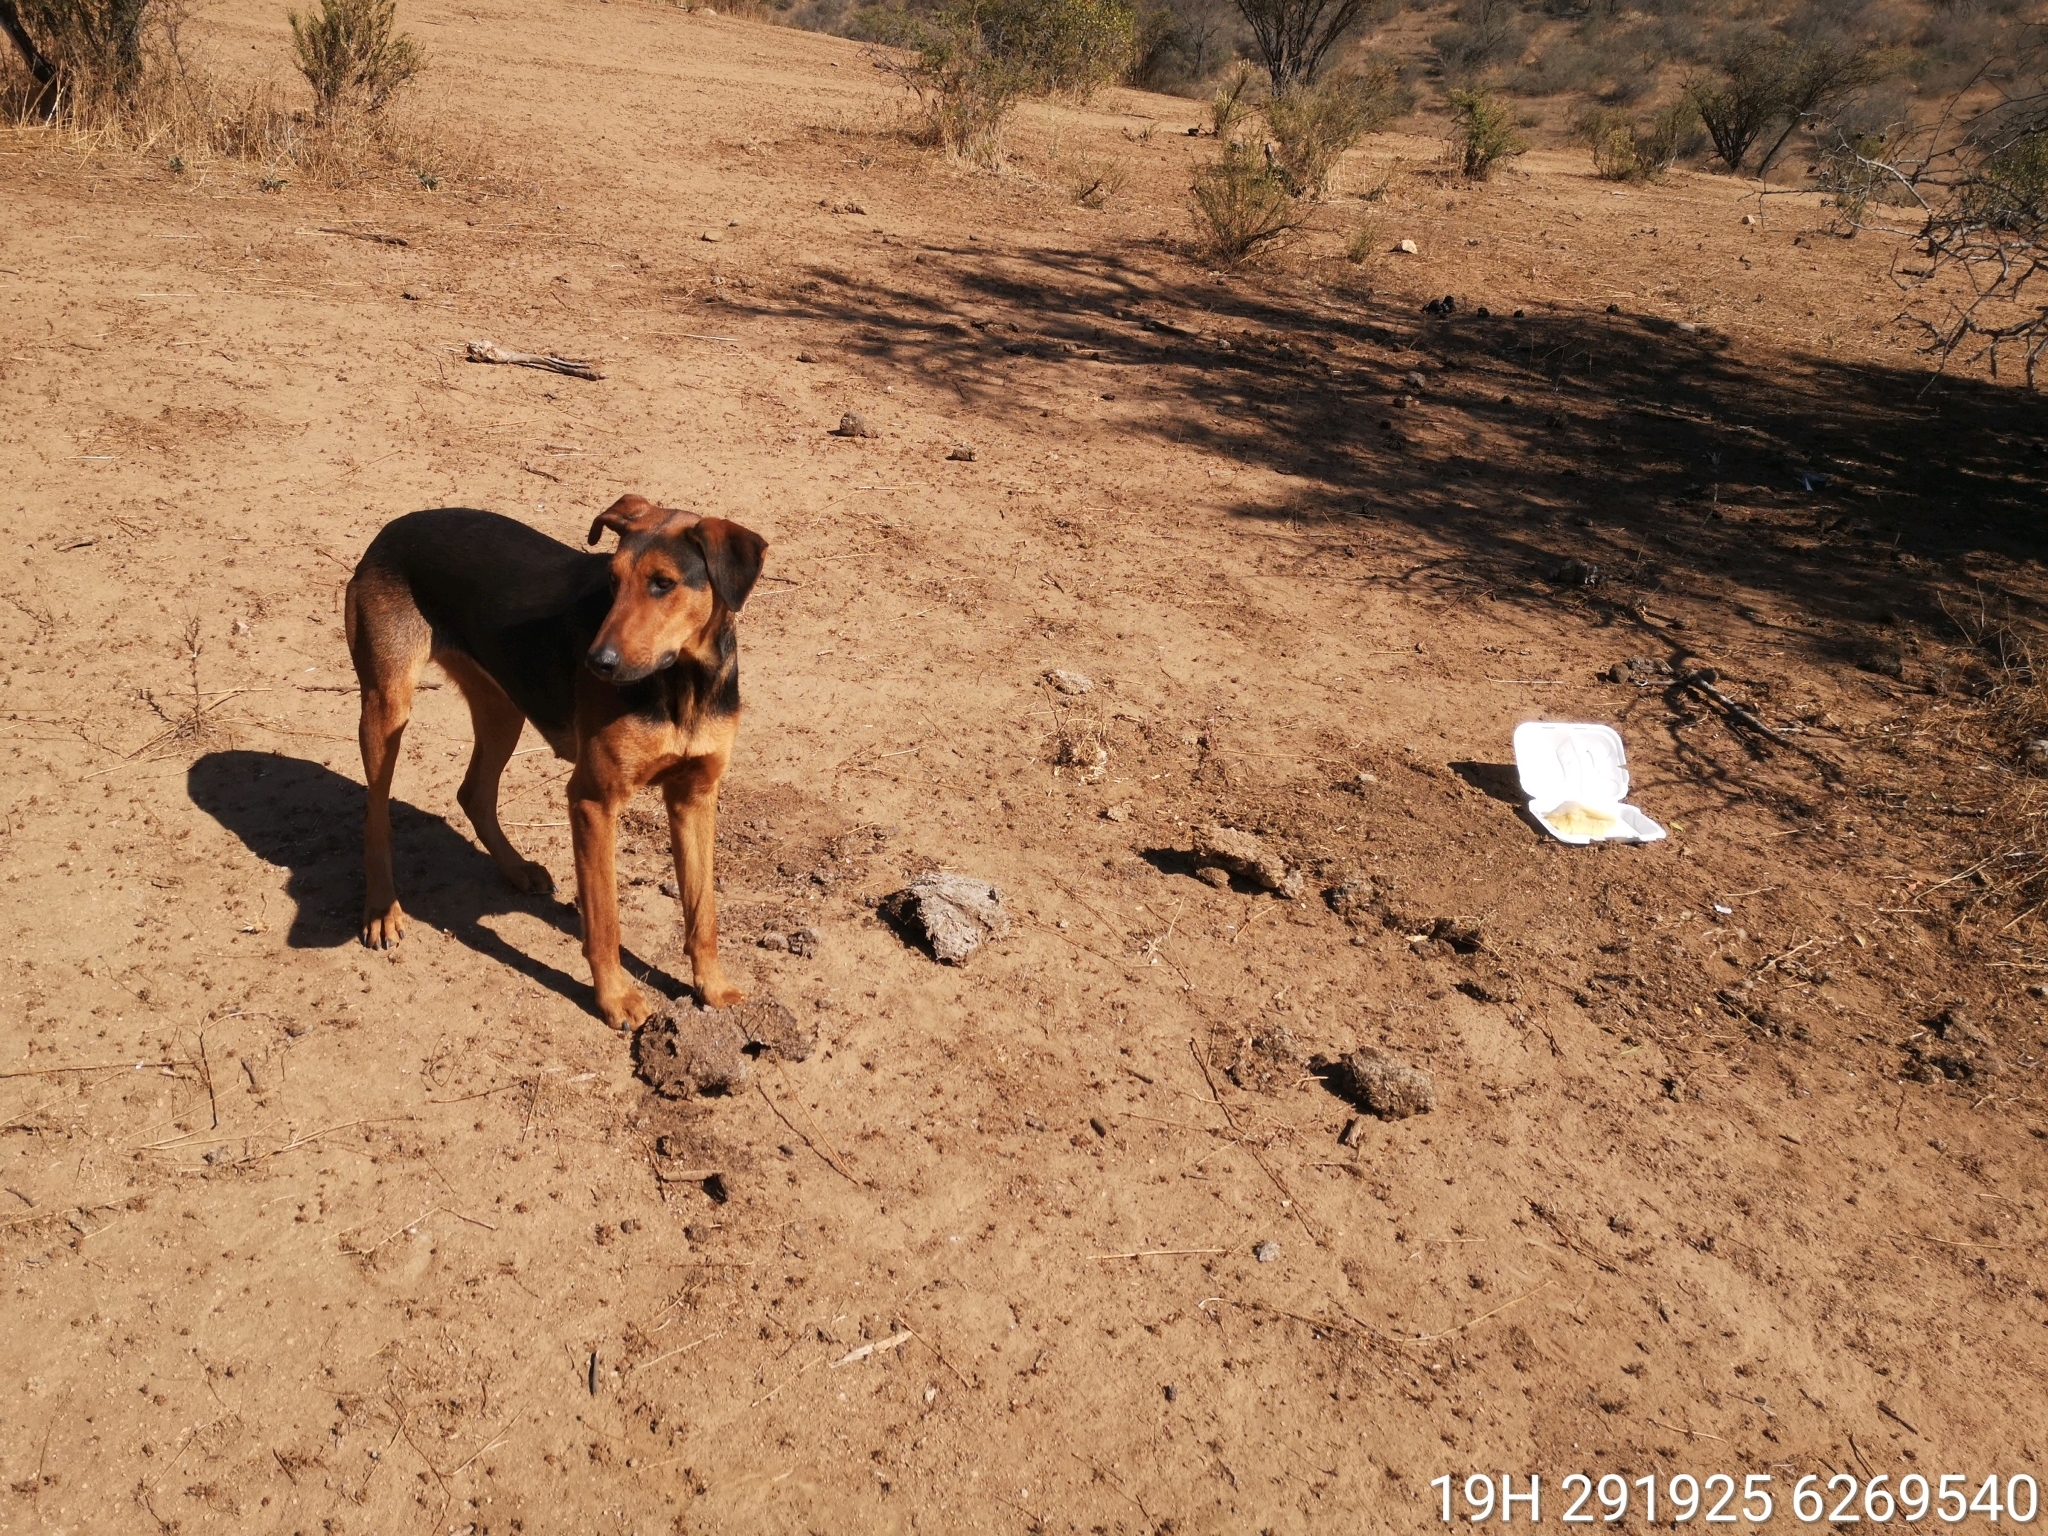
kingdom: Animalia
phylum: Chordata
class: Mammalia
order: Carnivora
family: Canidae
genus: Canis
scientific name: Canis lupus
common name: Gray wolf
